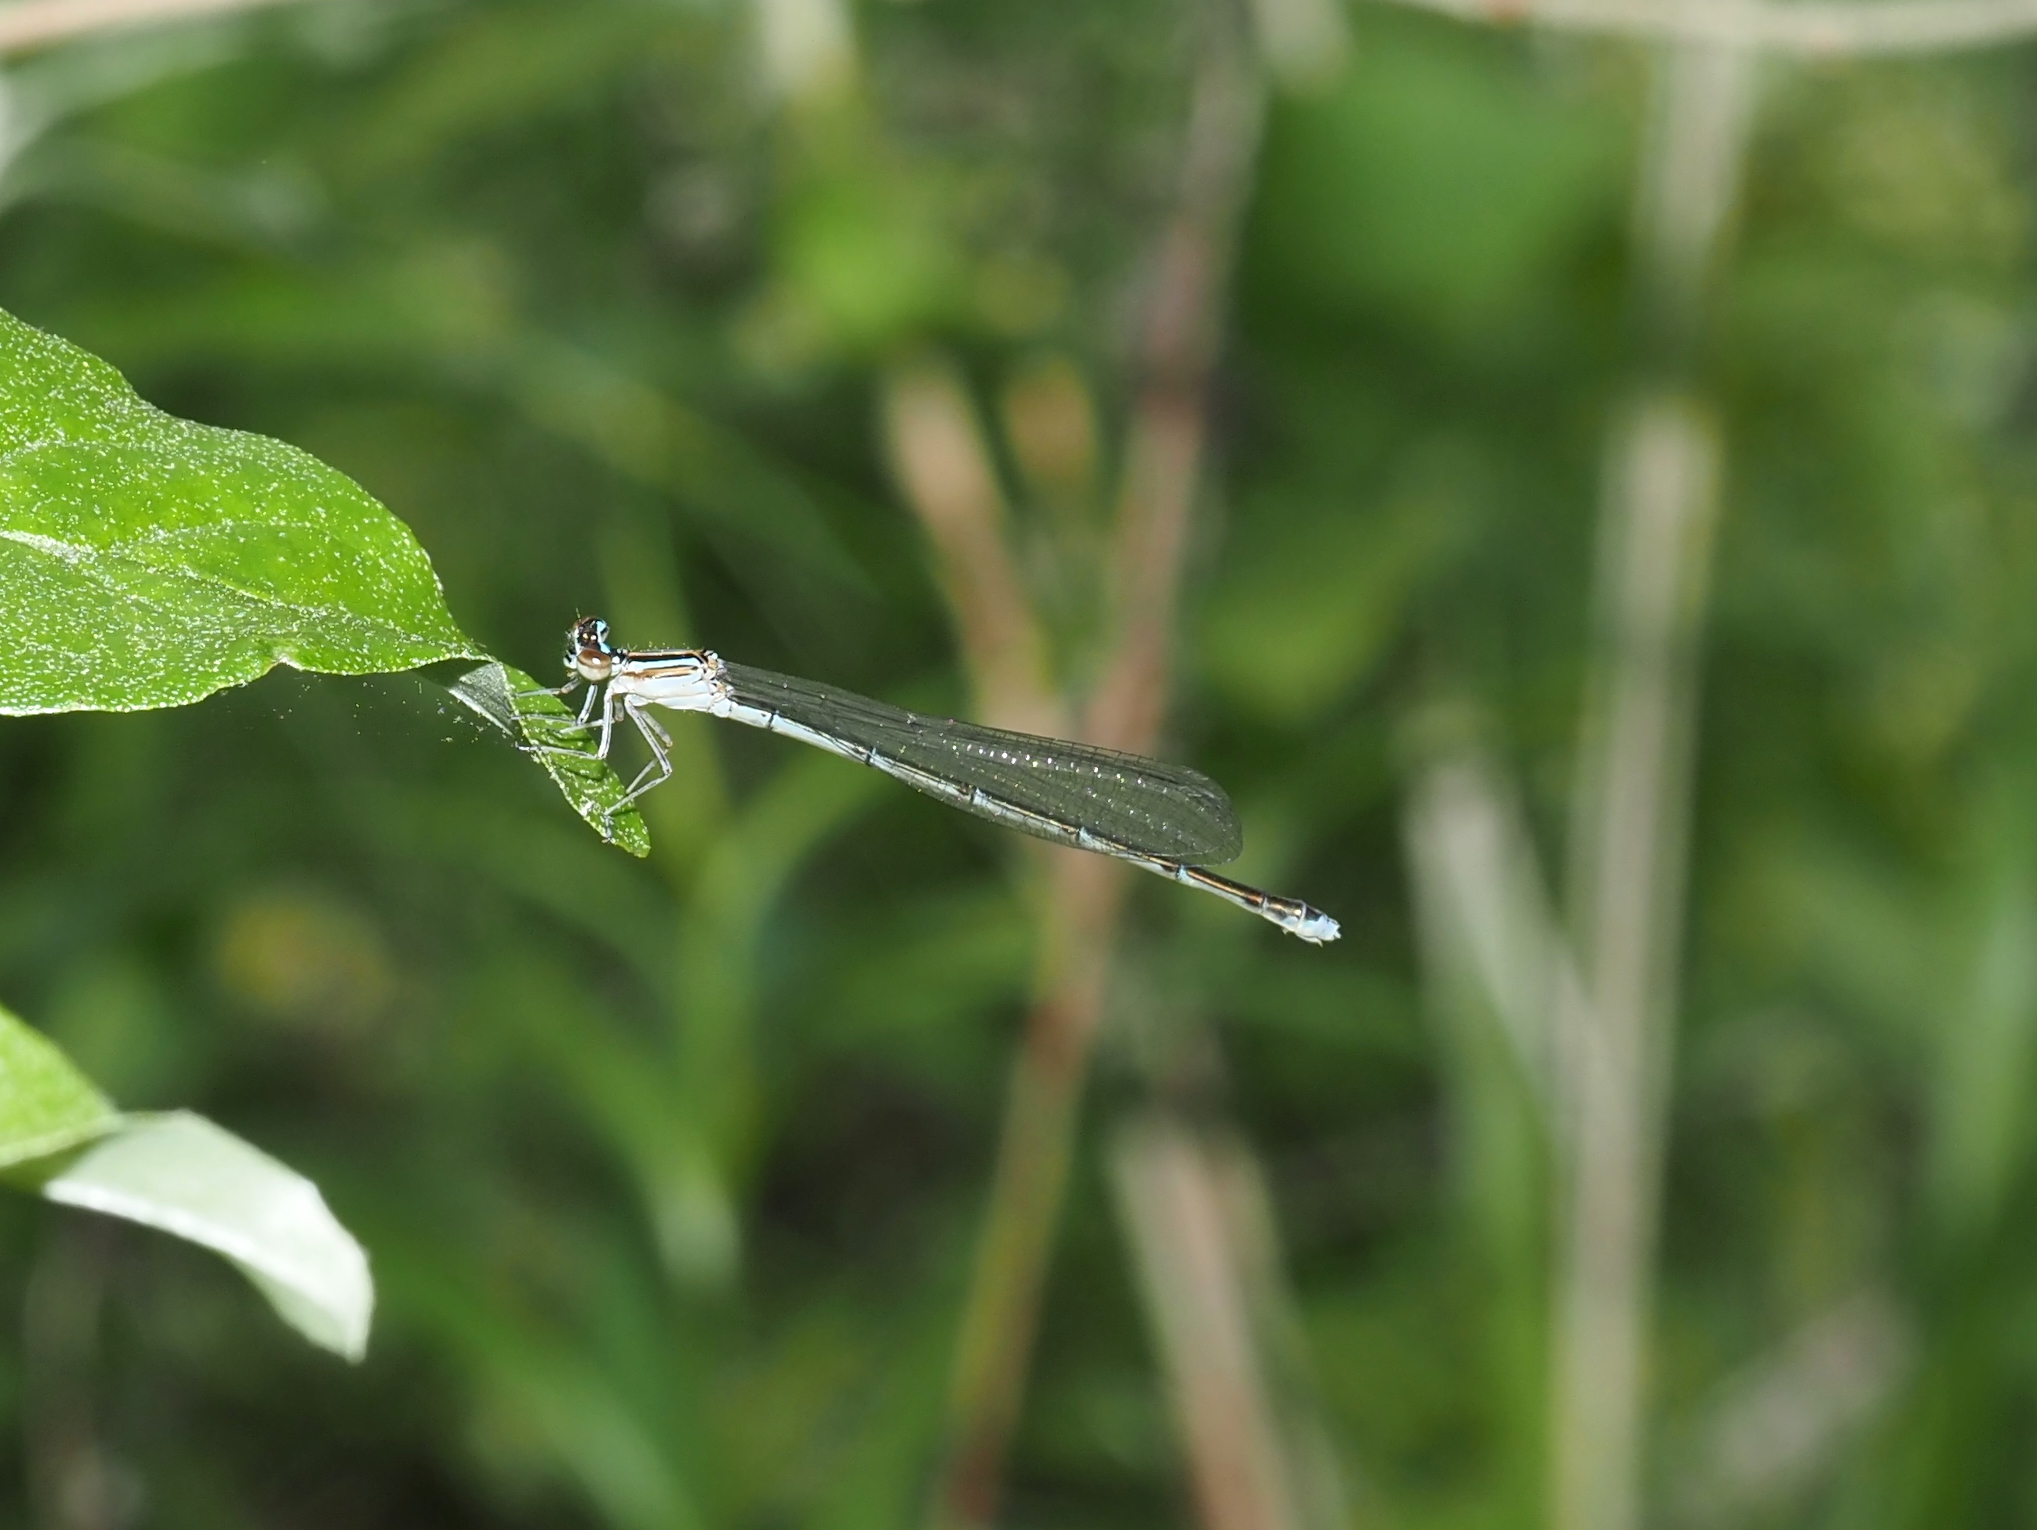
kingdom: Animalia
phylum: Arthropoda
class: Insecta
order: Odonata
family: Coenagrionidae
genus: Enallagma
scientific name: Enallagma exsulans
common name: Stream bluet
